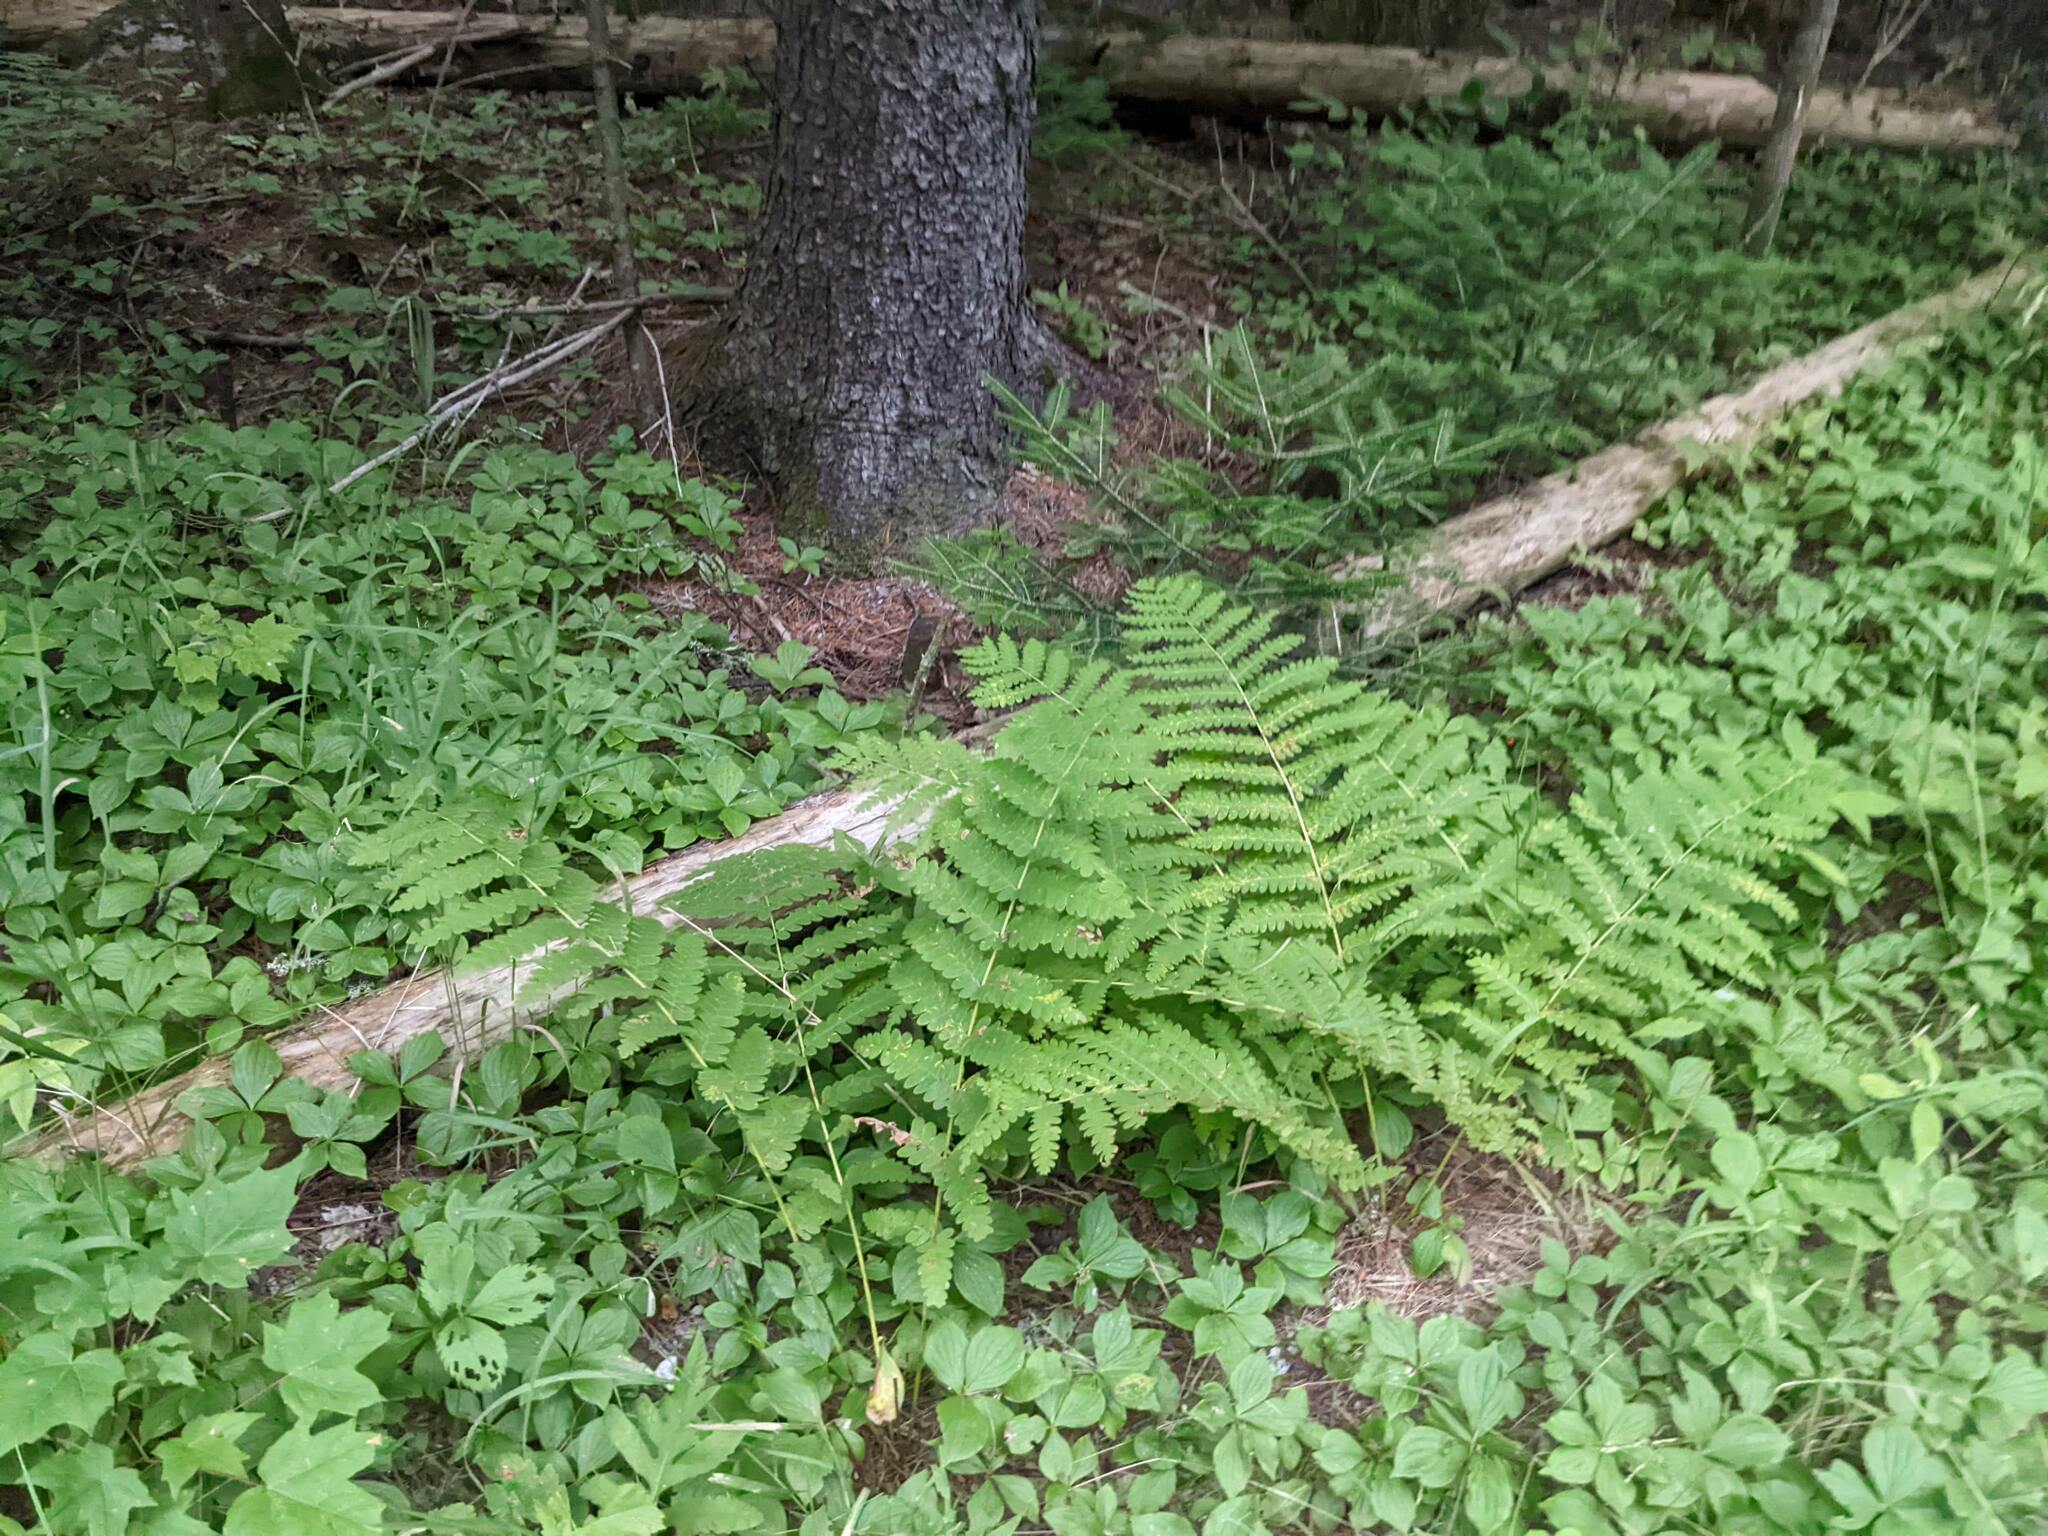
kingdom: Plantae
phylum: Tracheophyta
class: Polypodiopsida
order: Osmundales
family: Osmundaceae
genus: Claytosmunda
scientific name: Claytosmunda claytoniana
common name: Clayton's fern
